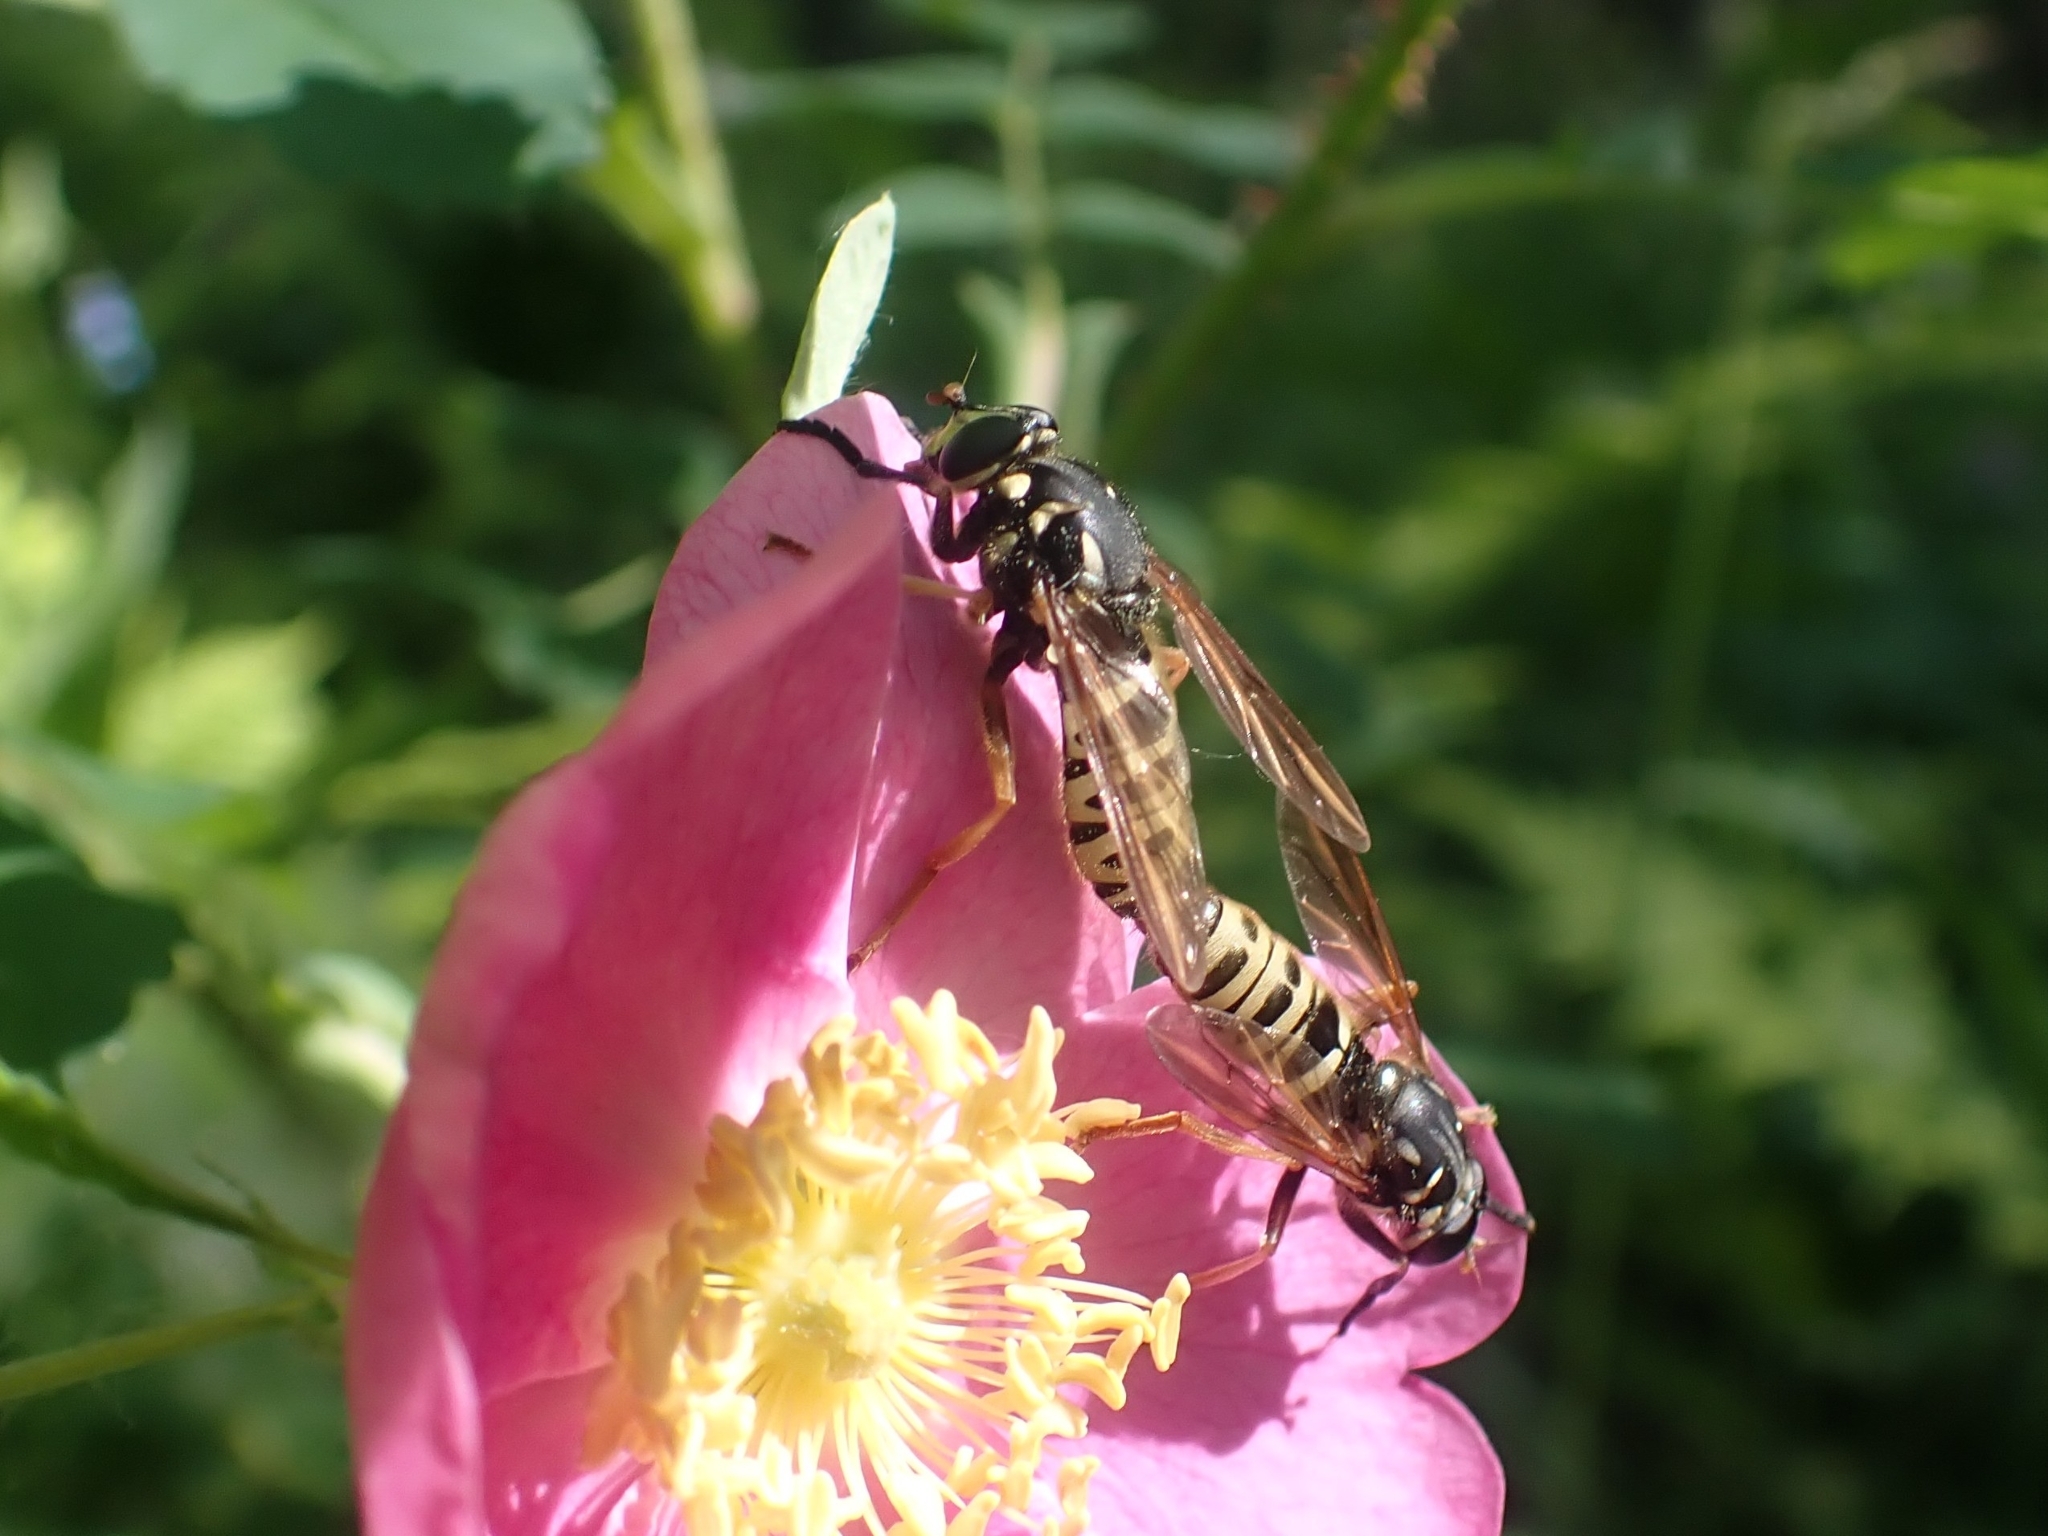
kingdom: Animalia
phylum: Arthropoda
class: Insecta
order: Diptera
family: Syrphidae
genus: Temnostoma
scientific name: Temnostoma excentricum
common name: Black-spotted falsehorn
